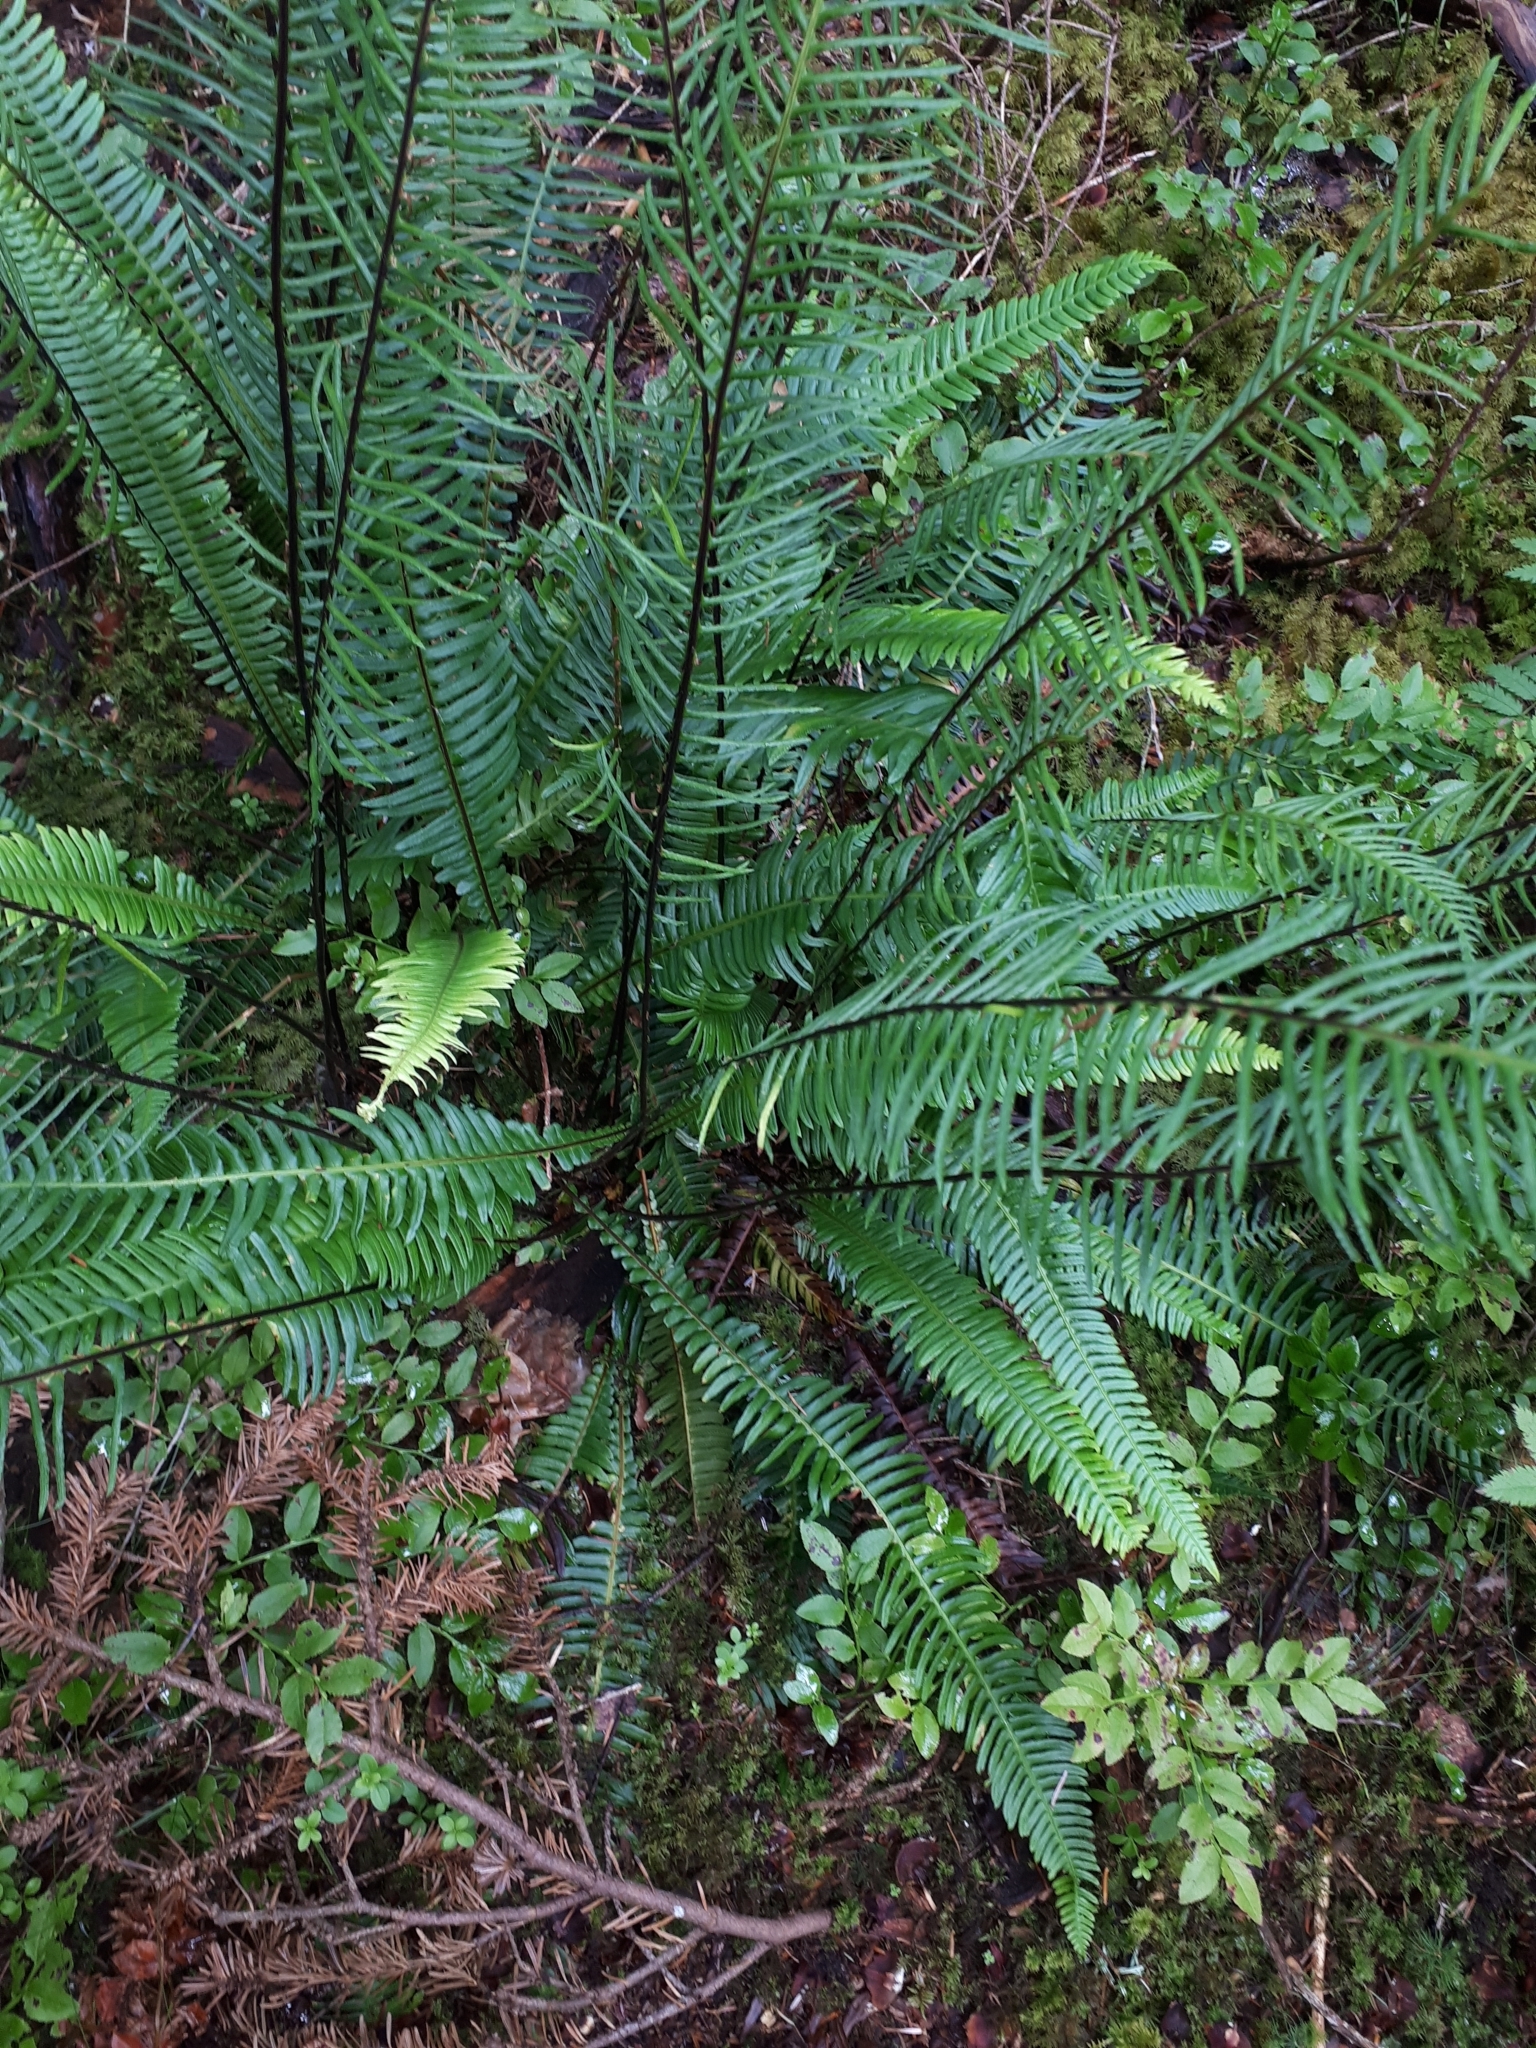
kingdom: Plantae
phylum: Tracheophyta
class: Polypodiopsida
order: Polypodiales
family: Blechnaceae
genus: Struthiopteris
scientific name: Struthiopteris spicant
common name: Deer fern
